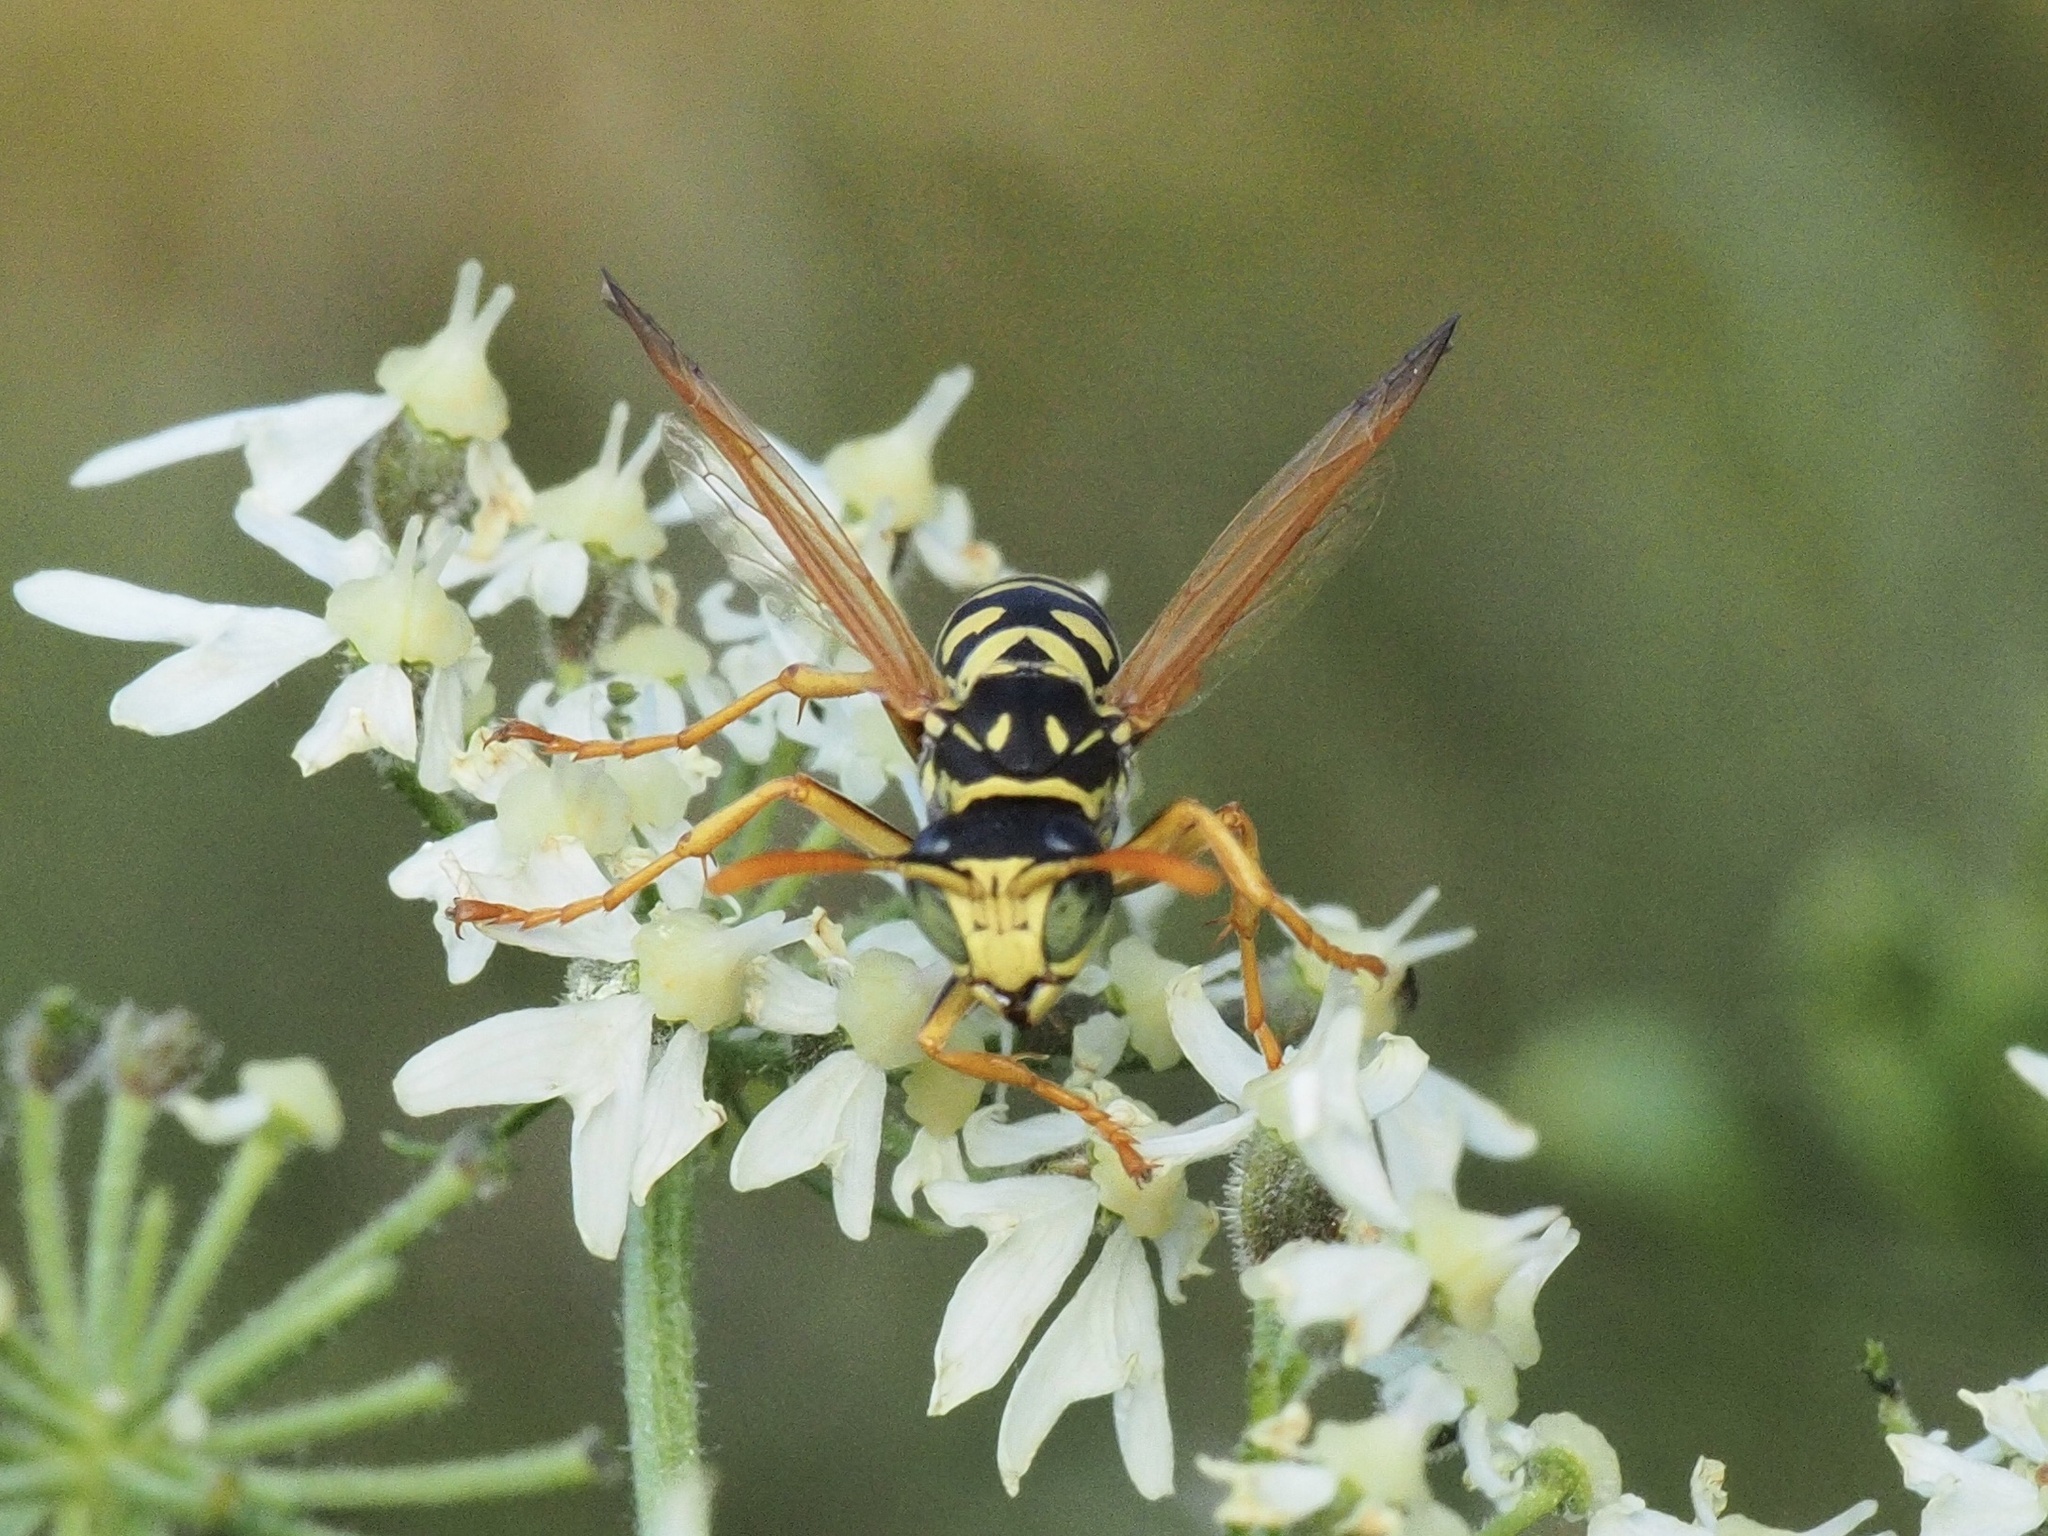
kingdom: Animalia
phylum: Arthropoda
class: Insecta
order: Hymenoptera
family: Eumenidae
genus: Polistes
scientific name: Polistes dominula
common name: Paper wasp
